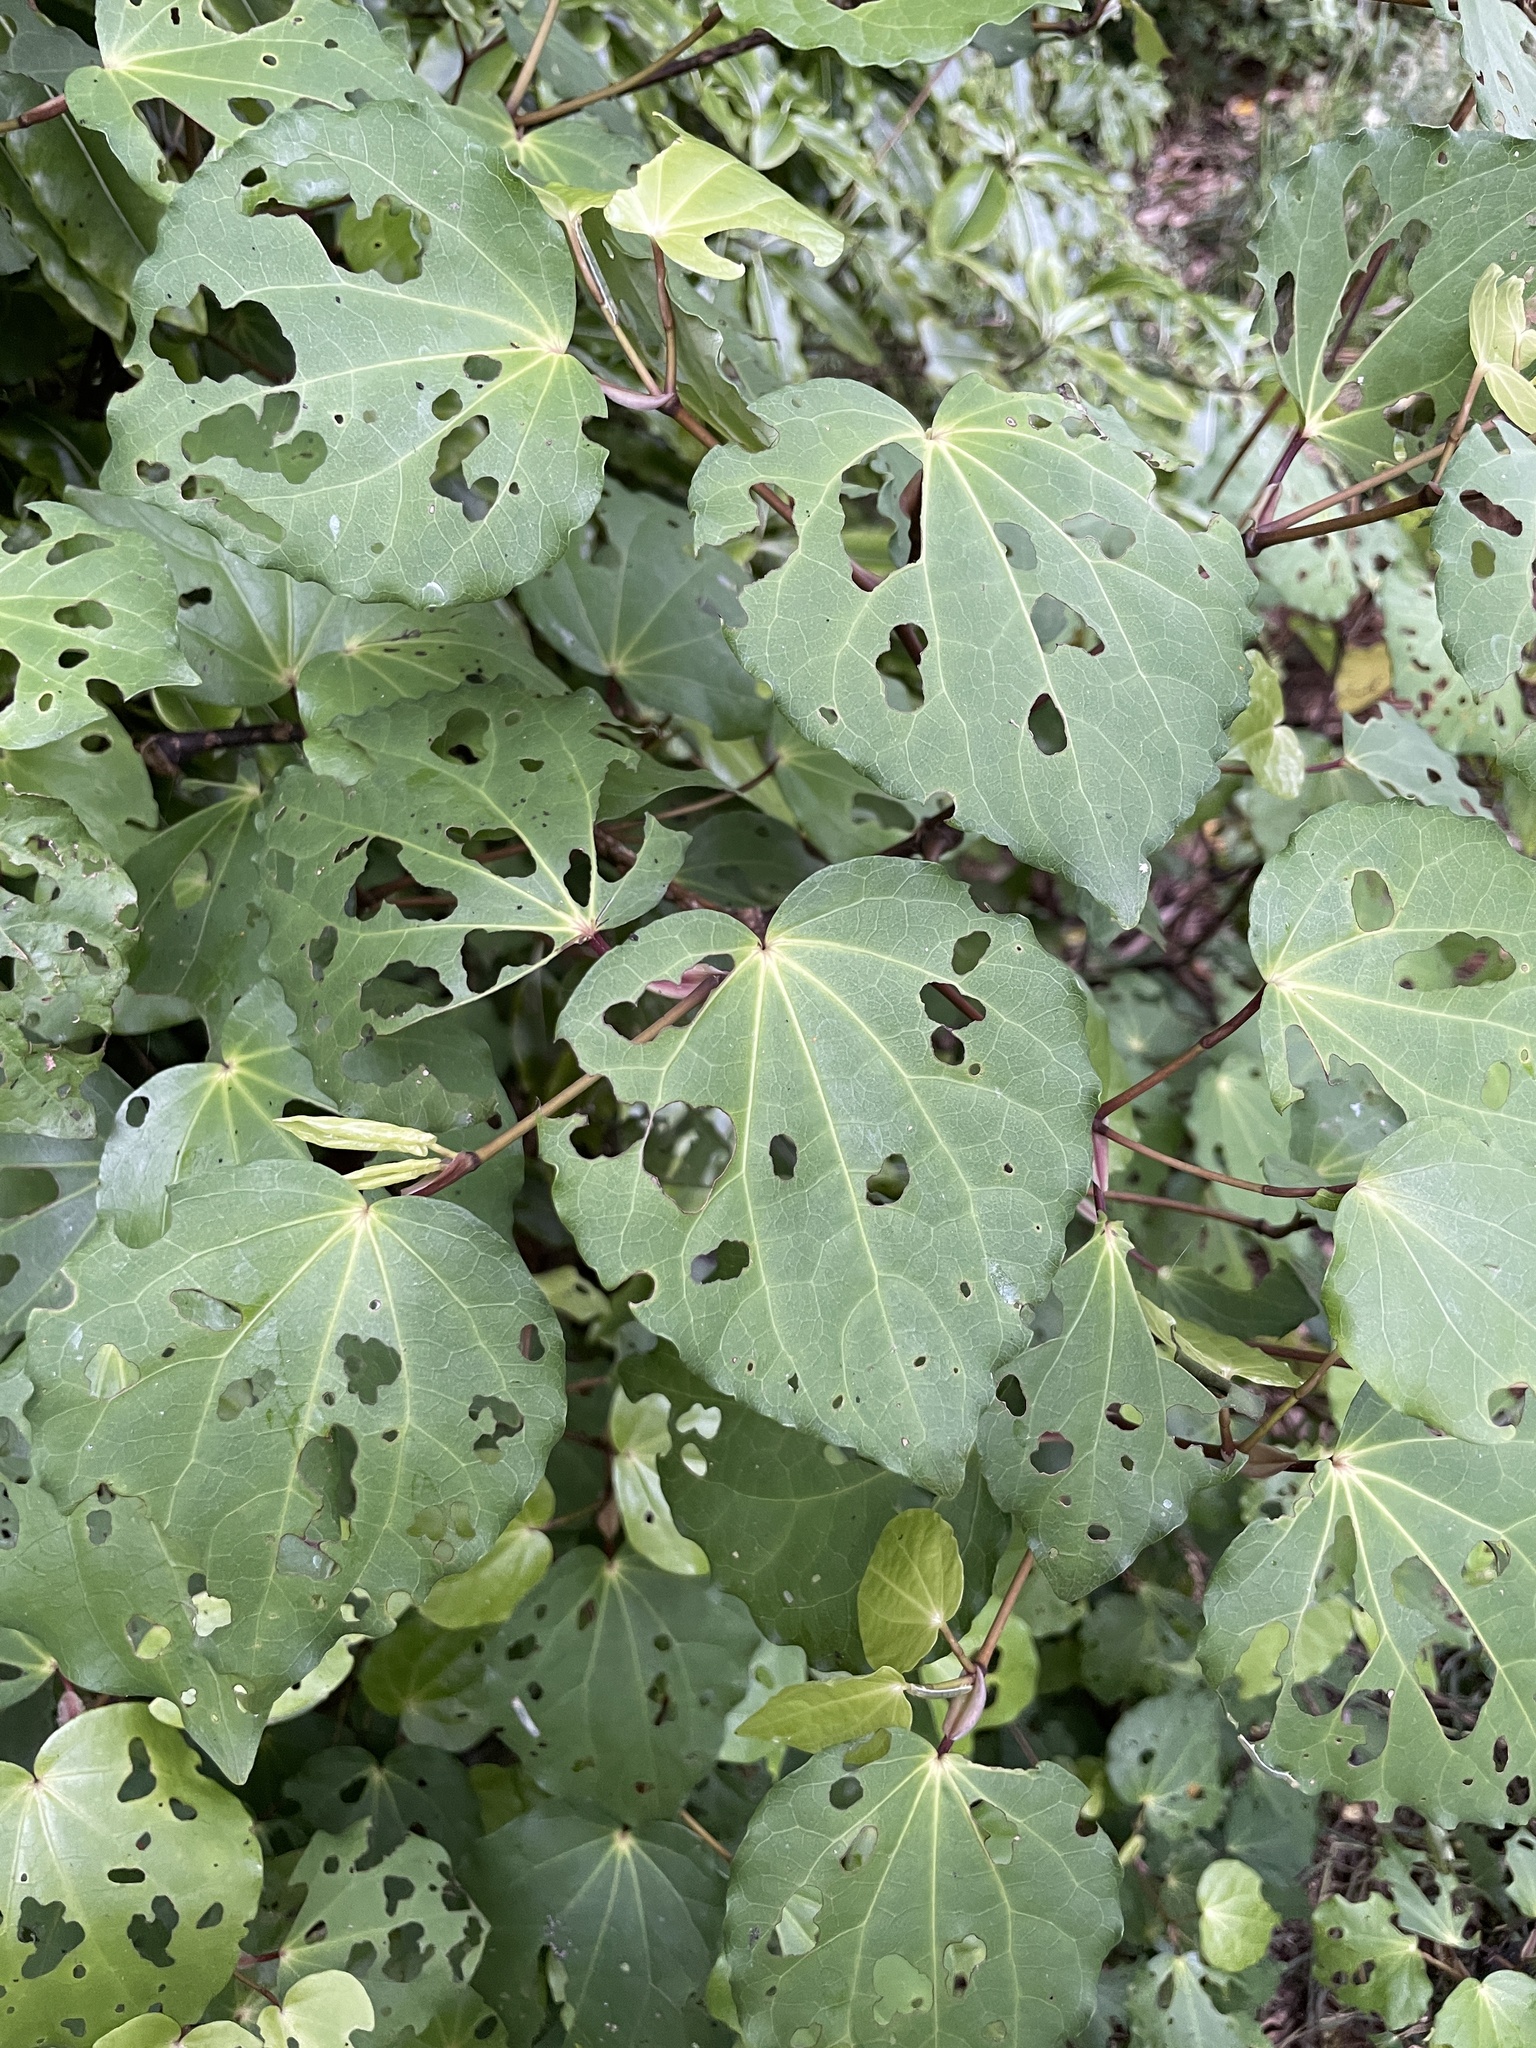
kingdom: Plantae
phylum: Tracheophyta
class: Magnoliopsida
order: Piperales
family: Piperaceae
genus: Macropiper
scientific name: Macropiper excelsum
